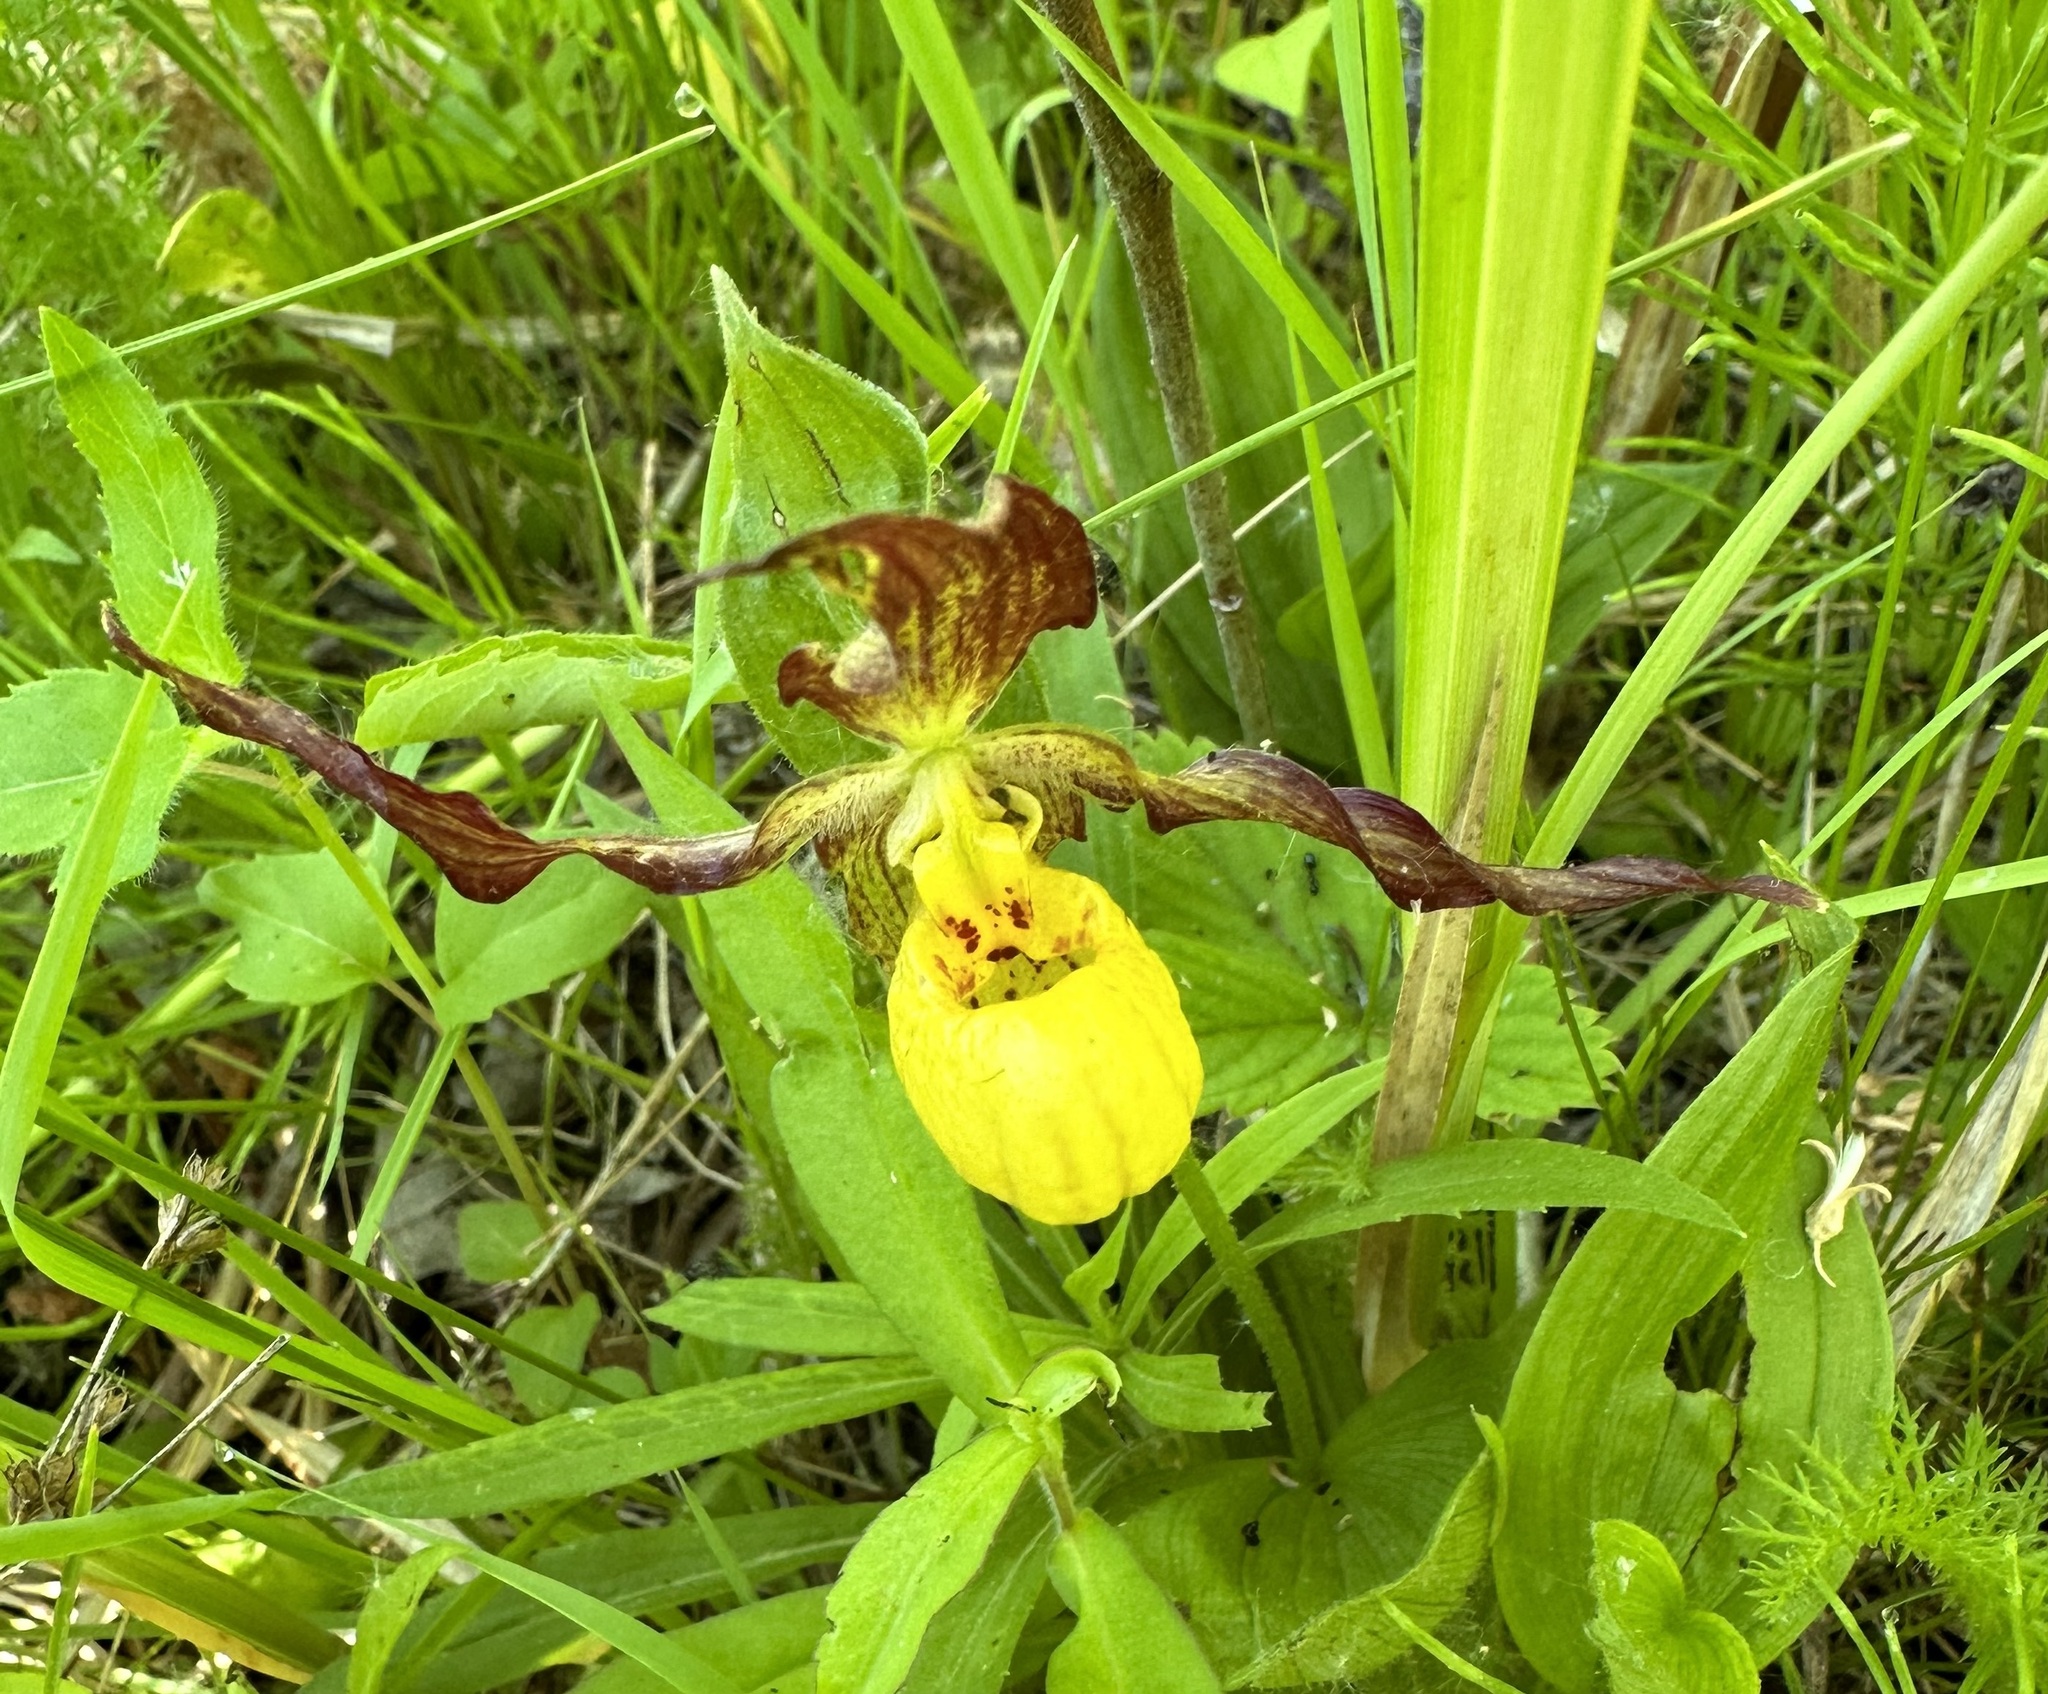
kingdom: Plantae
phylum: Tracheophyta
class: Liliopsida
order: Asparagales
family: Orchidaceae
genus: Cypripedium
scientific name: Cypripedium parviflorum
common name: American yellow lady's-slipper
